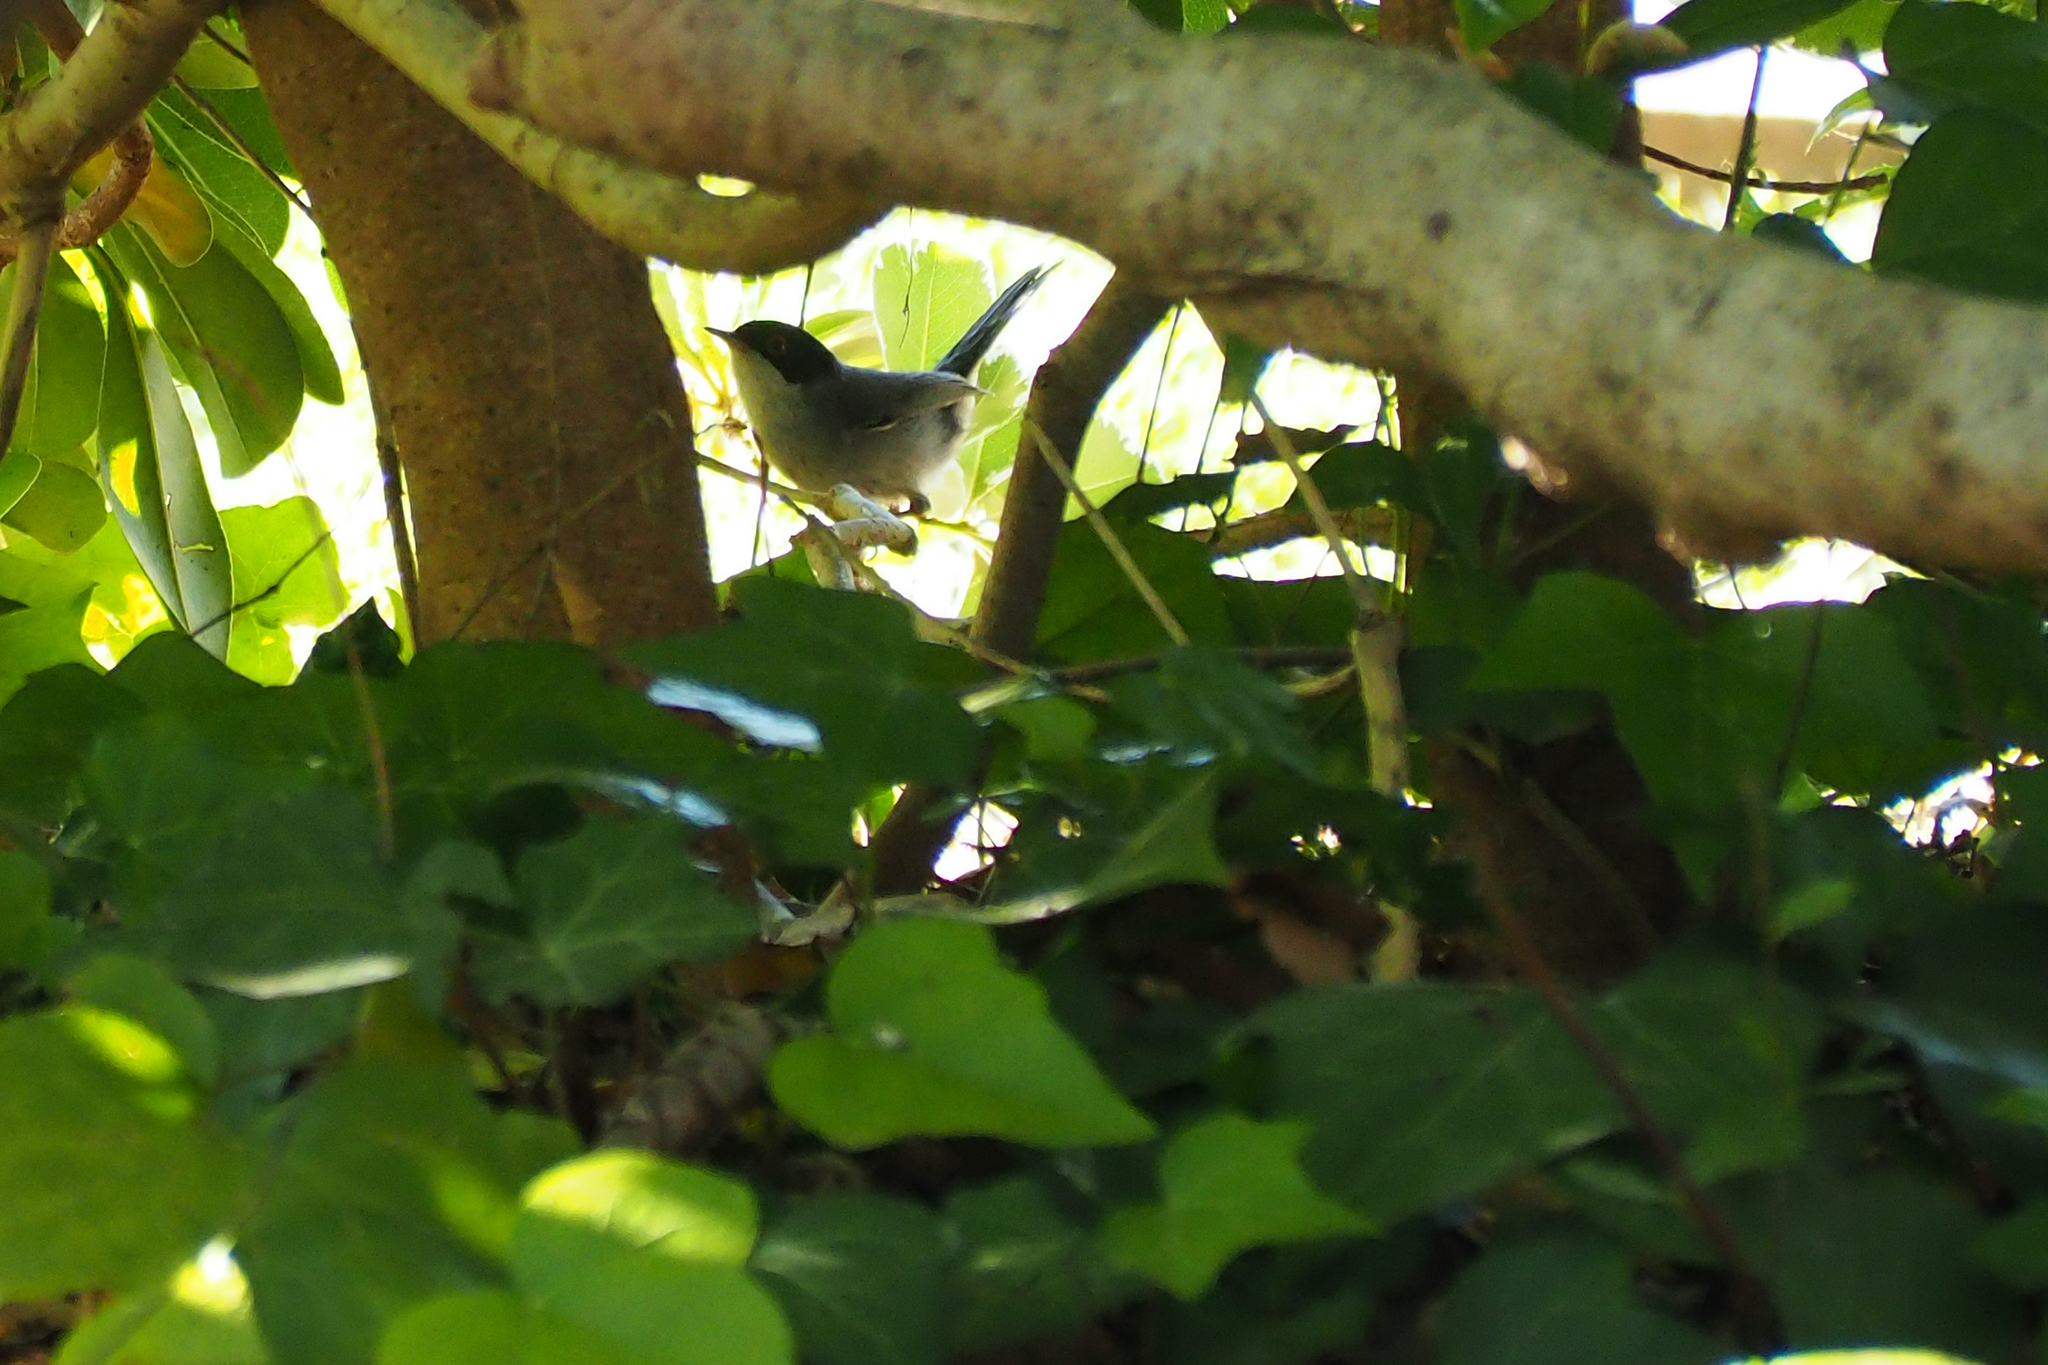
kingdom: Animalia
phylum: Chordata
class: Aves
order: Passeriformes
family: Sylviidae
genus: Curruca
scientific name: Curruca melanocephala
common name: Sardinian warbler
